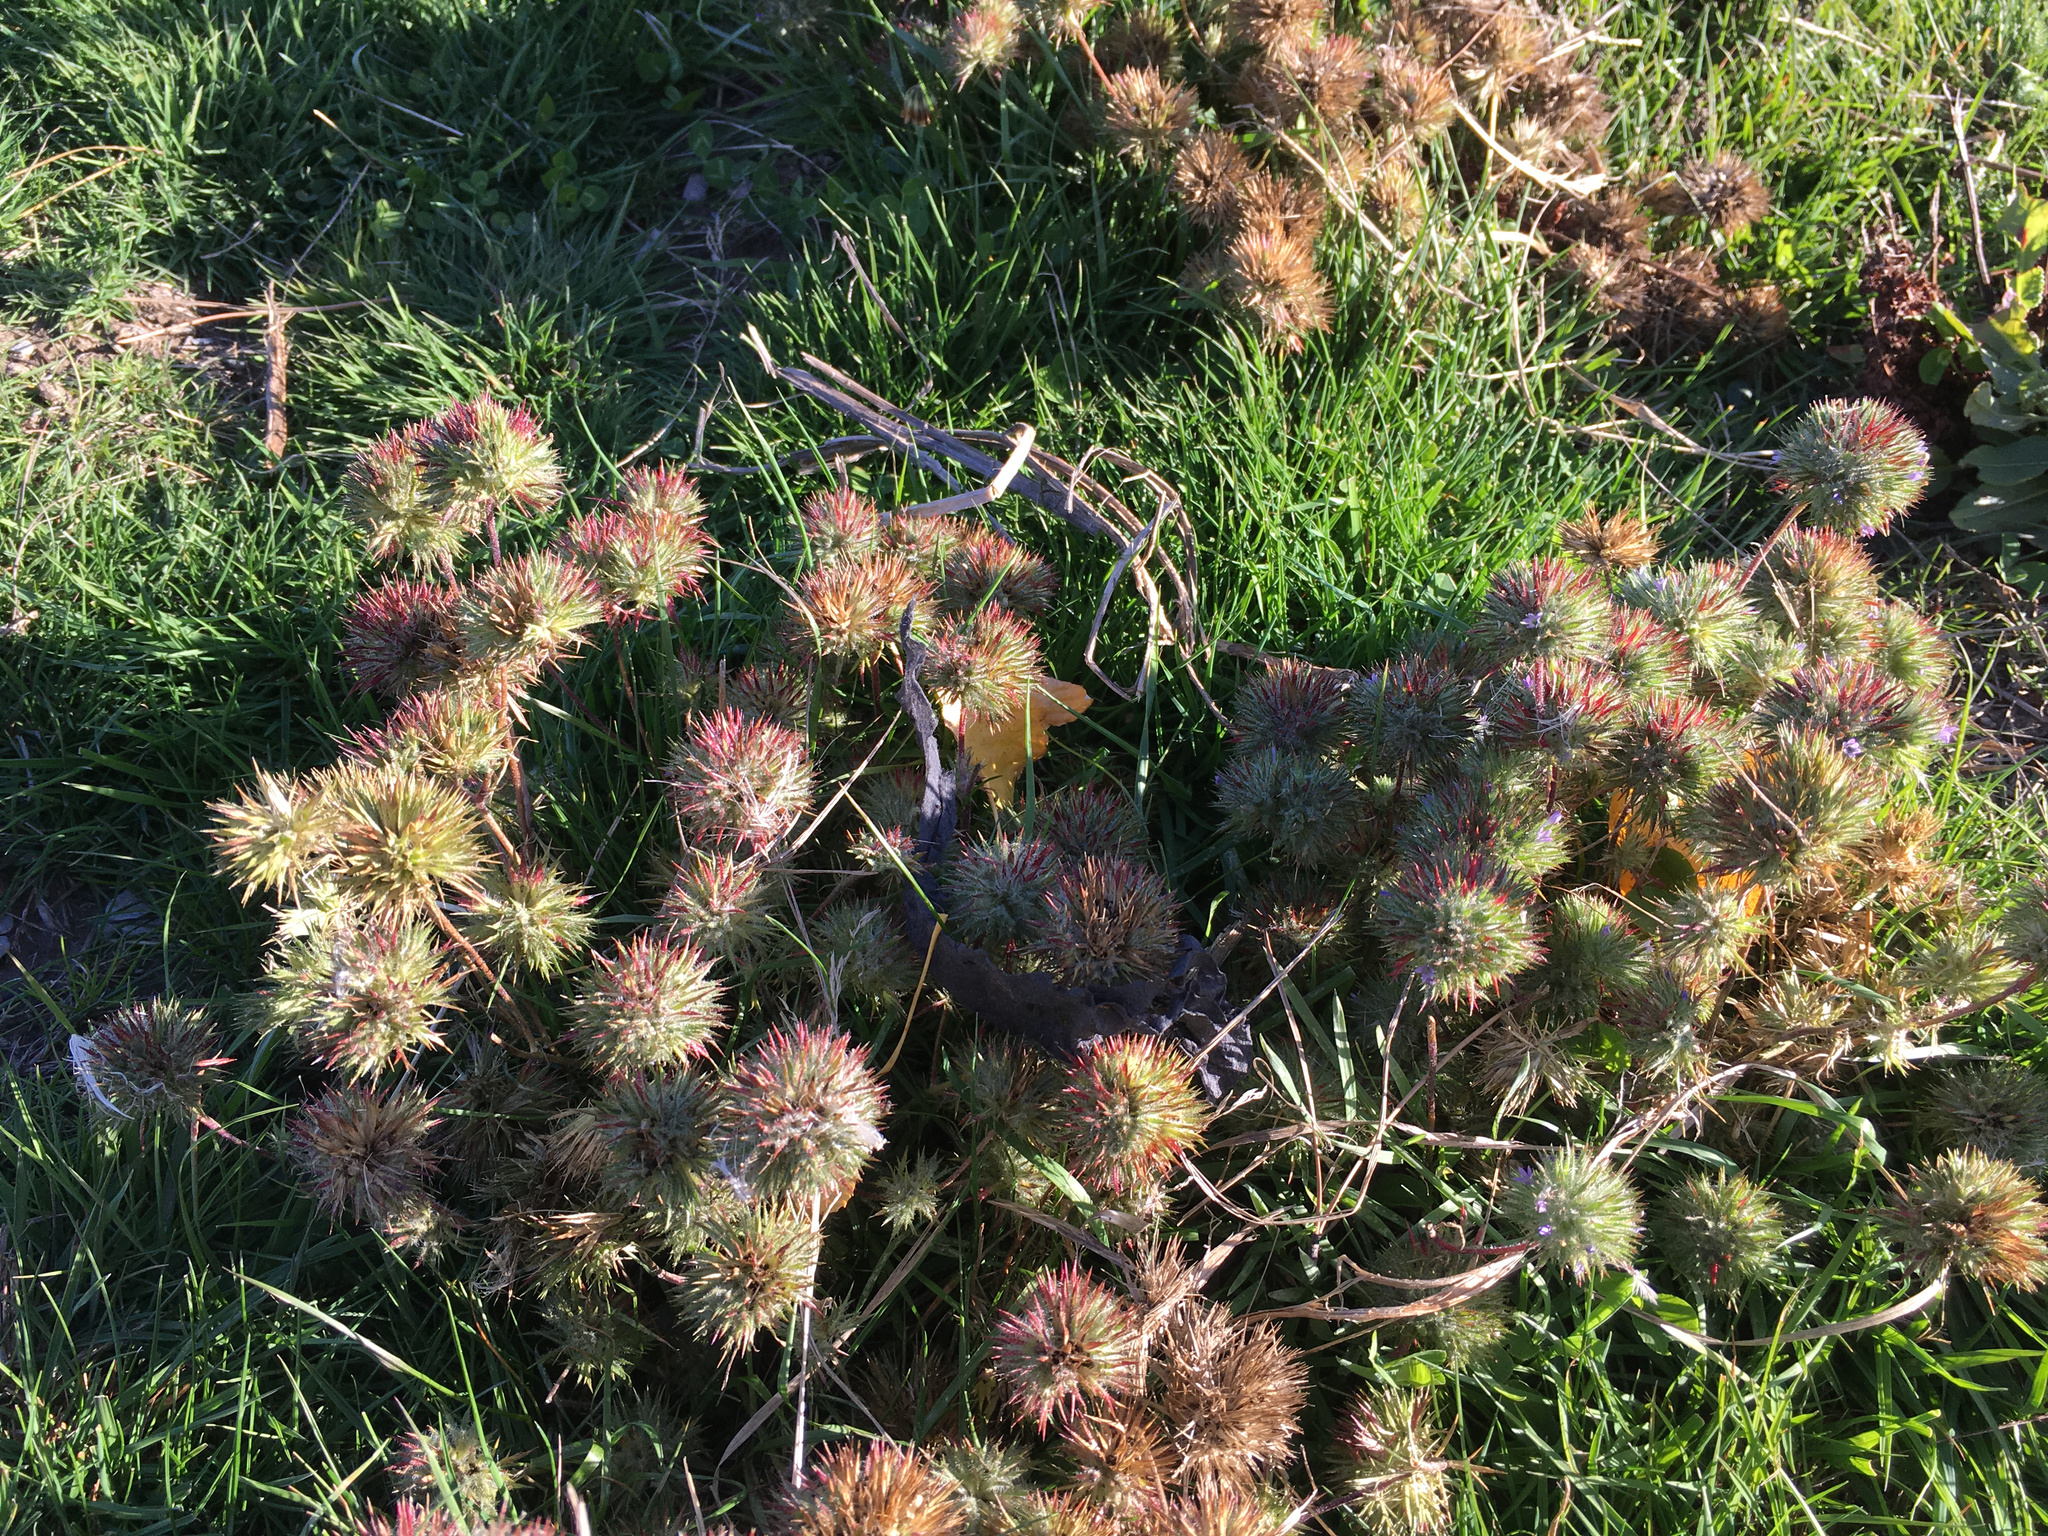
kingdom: Plantae
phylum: Tracheophyta
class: Magnoliopsida
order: Ericales
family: Polemoniaceae
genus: Navarretia
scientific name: Navarretia squarrosa
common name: Skunkweed
